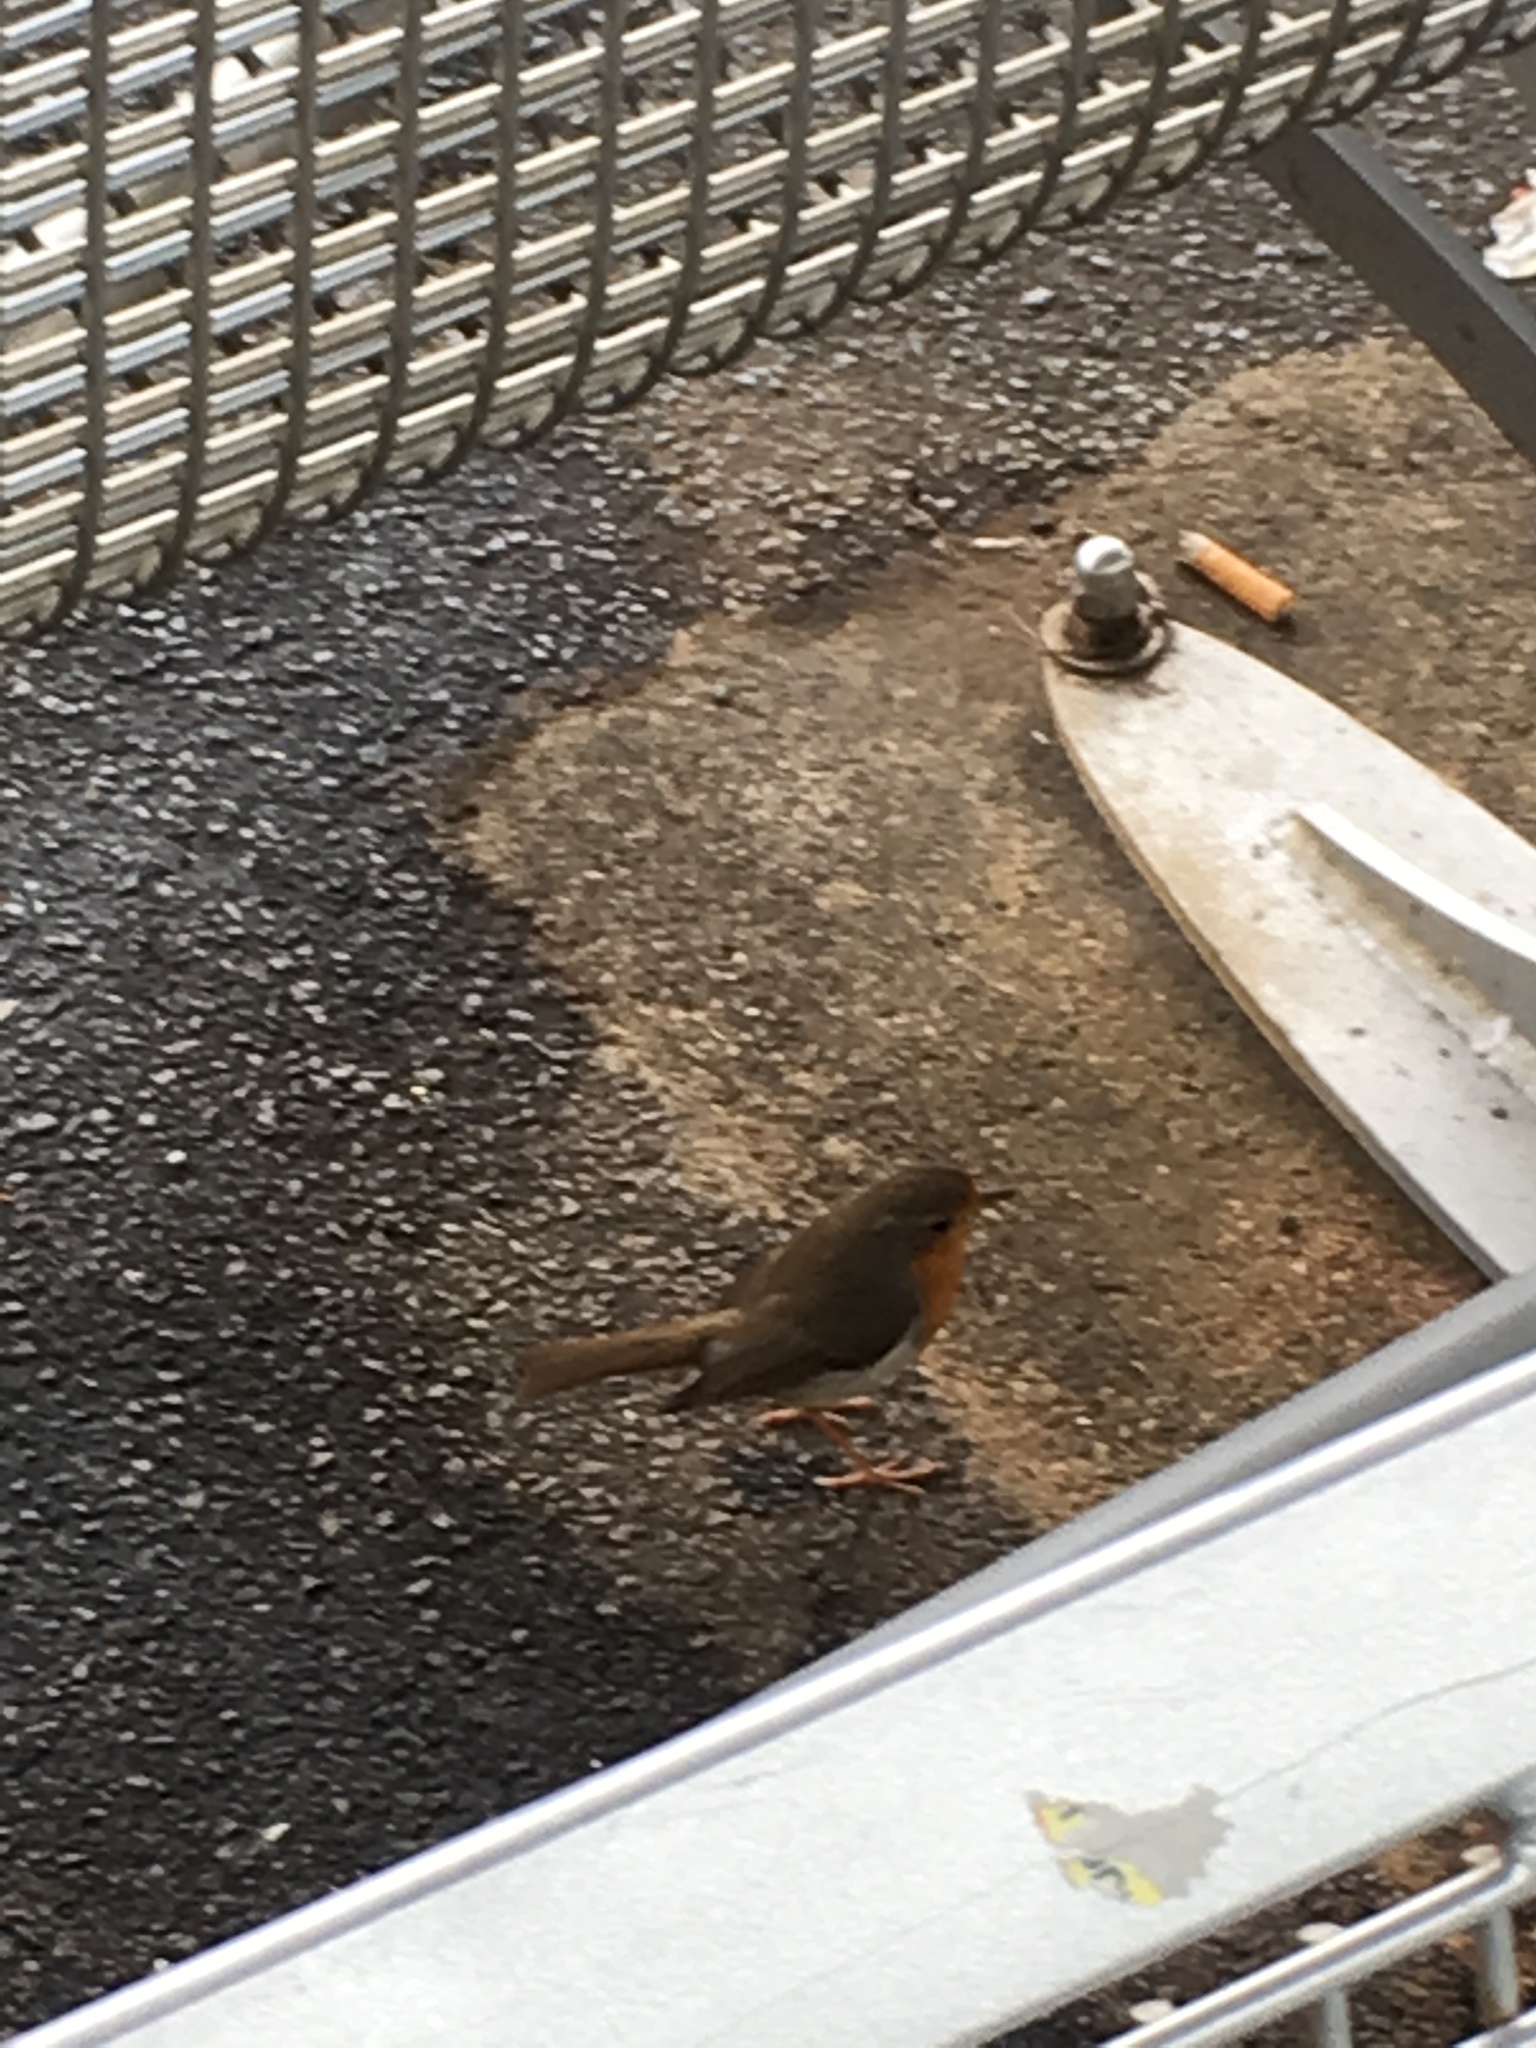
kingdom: Animalia
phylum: Chordata
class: Aves
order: Passeriformes
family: Muscicapidae
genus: Erithacus
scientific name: Erithacus rubecula
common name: European robin
